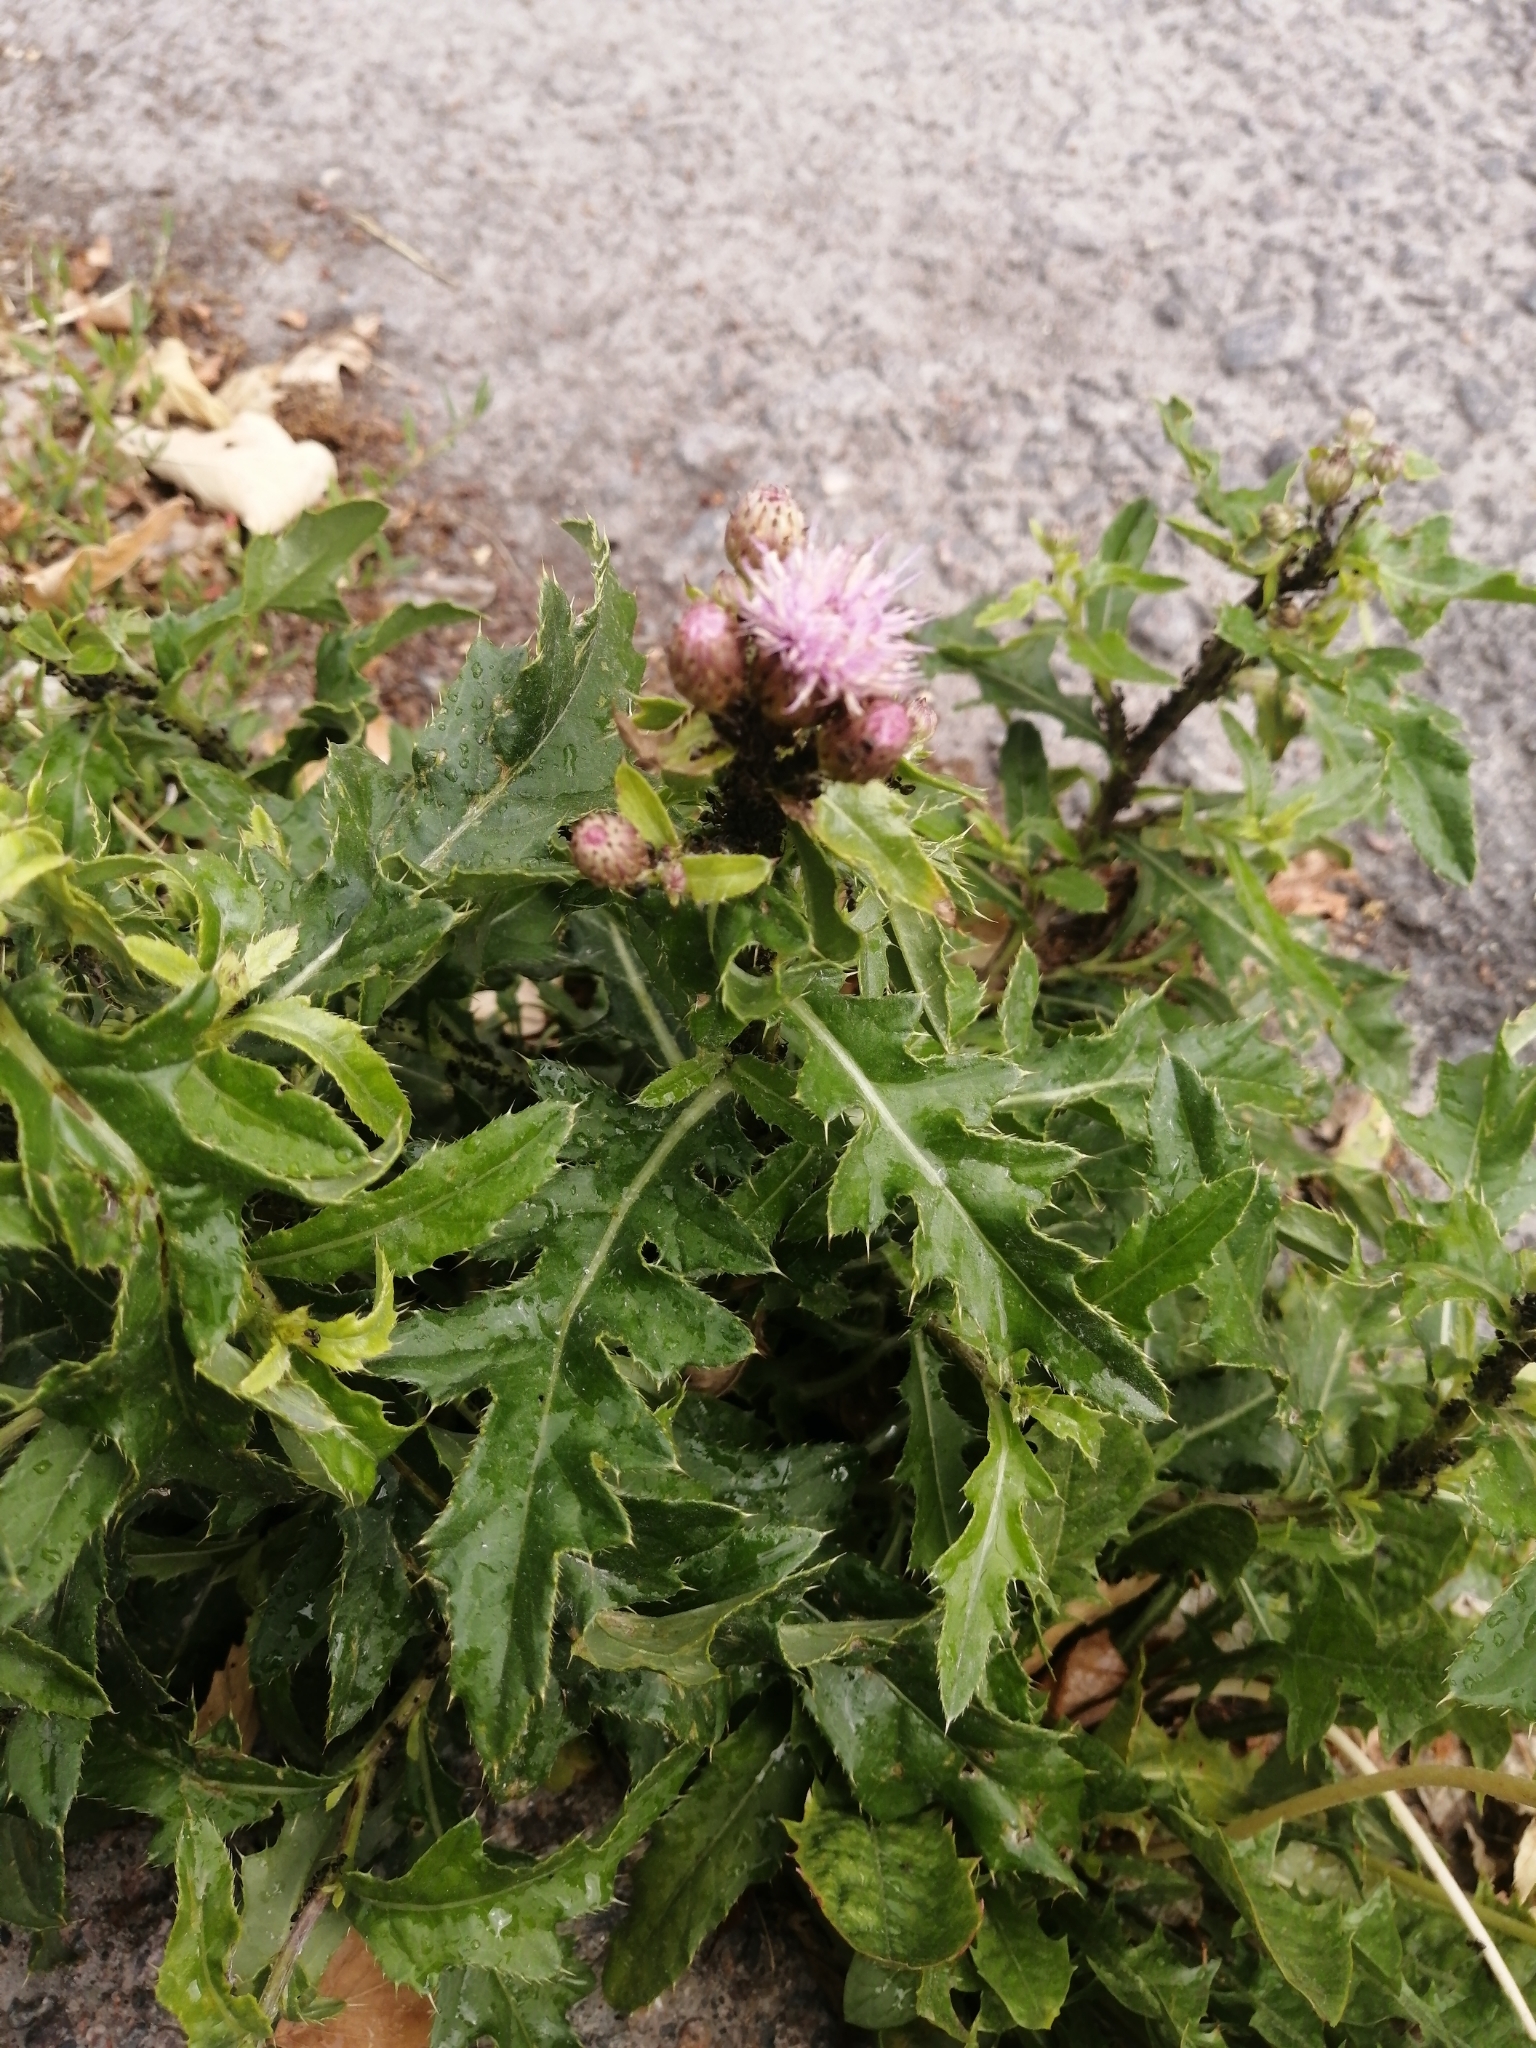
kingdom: Plantae
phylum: Tracheophyta
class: Magnoliopsida
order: Asterales
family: Asteraceae
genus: Cirsium
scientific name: Cirsium arvense
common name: Creeping thistle
